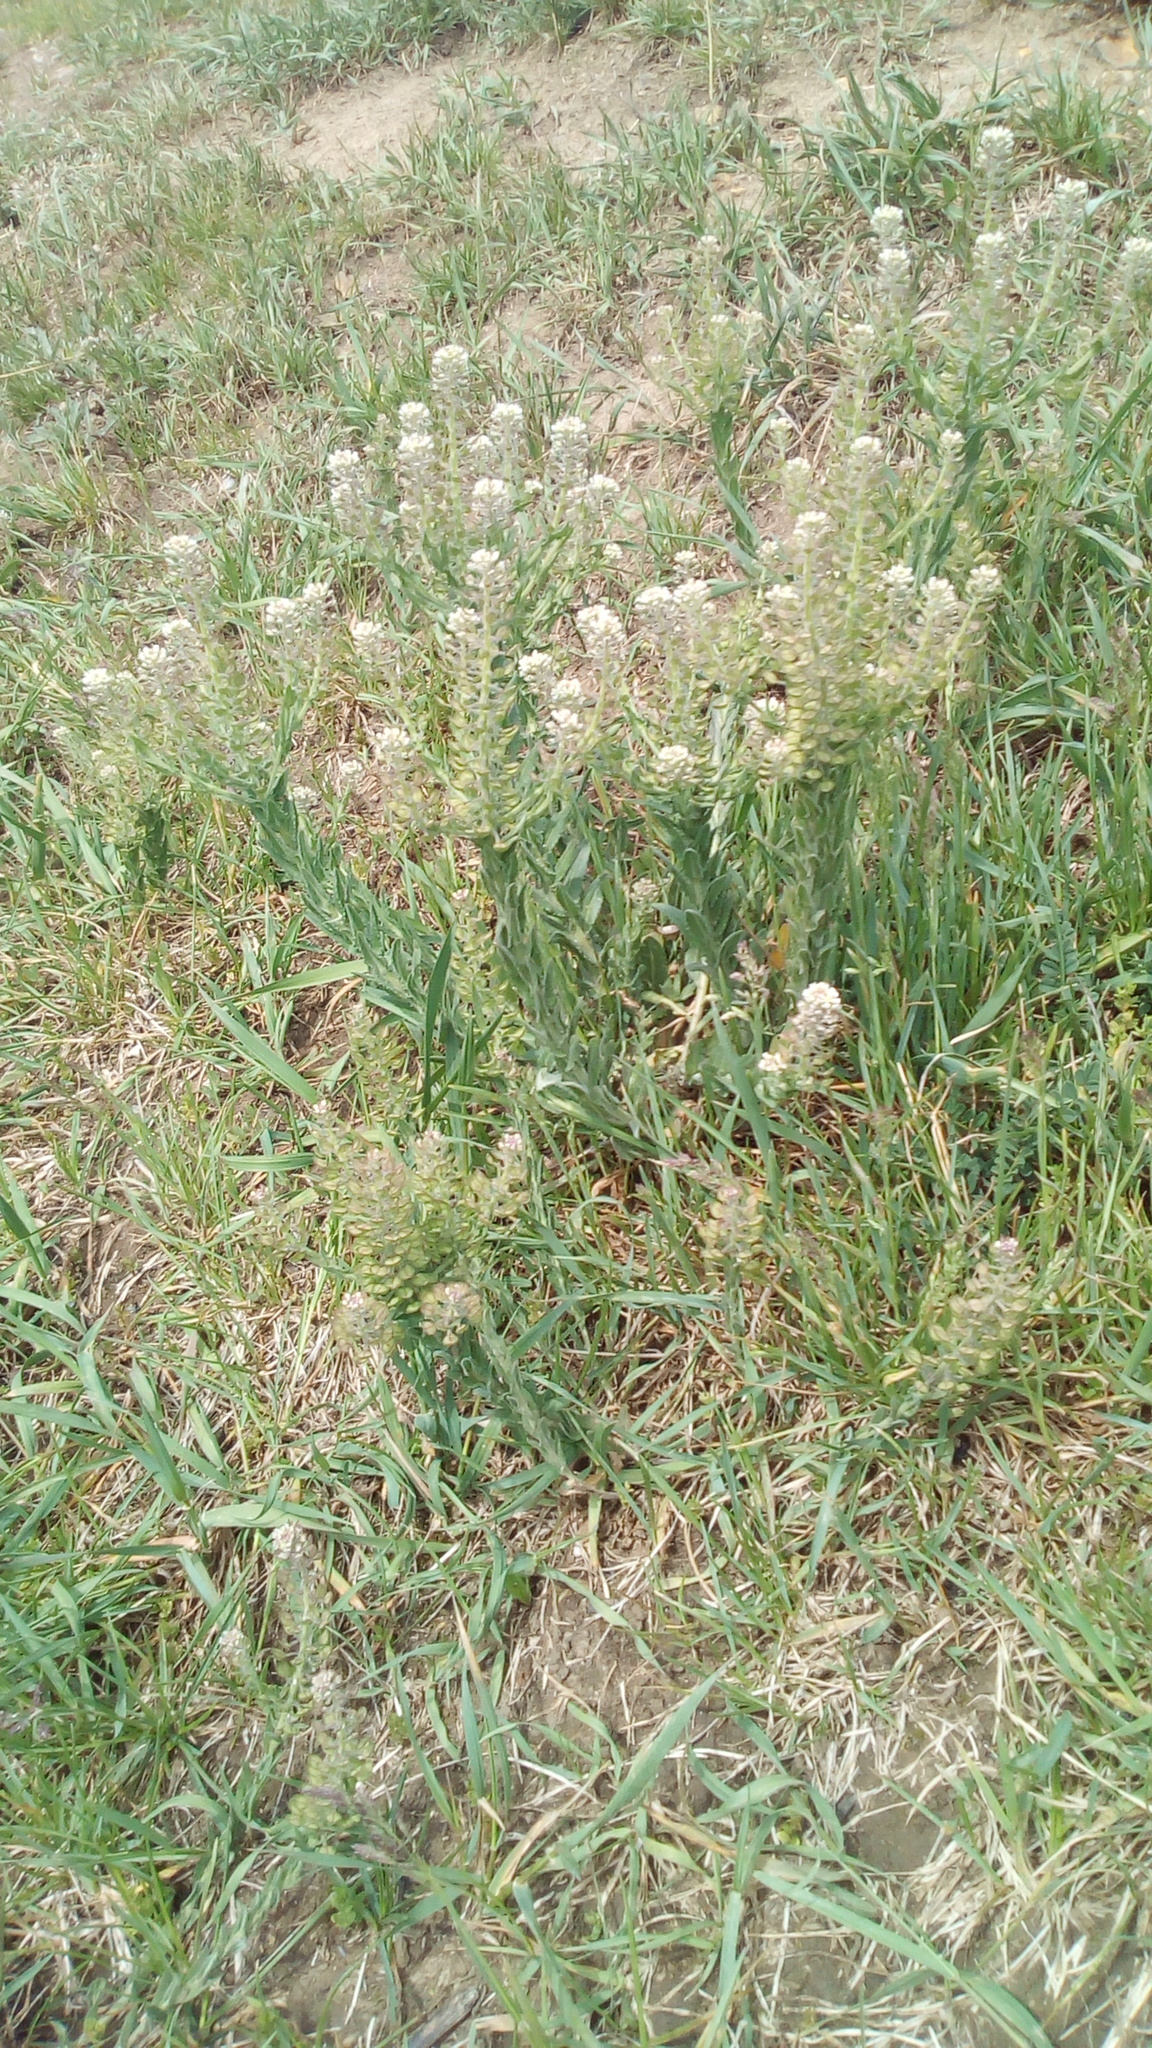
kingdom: Plantae
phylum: Tracheophyta
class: Magnoliopsida
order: Brassicales
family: Brassicaceae
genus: Lepidium
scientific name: Lepidium campestre
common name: Field pepperwort
